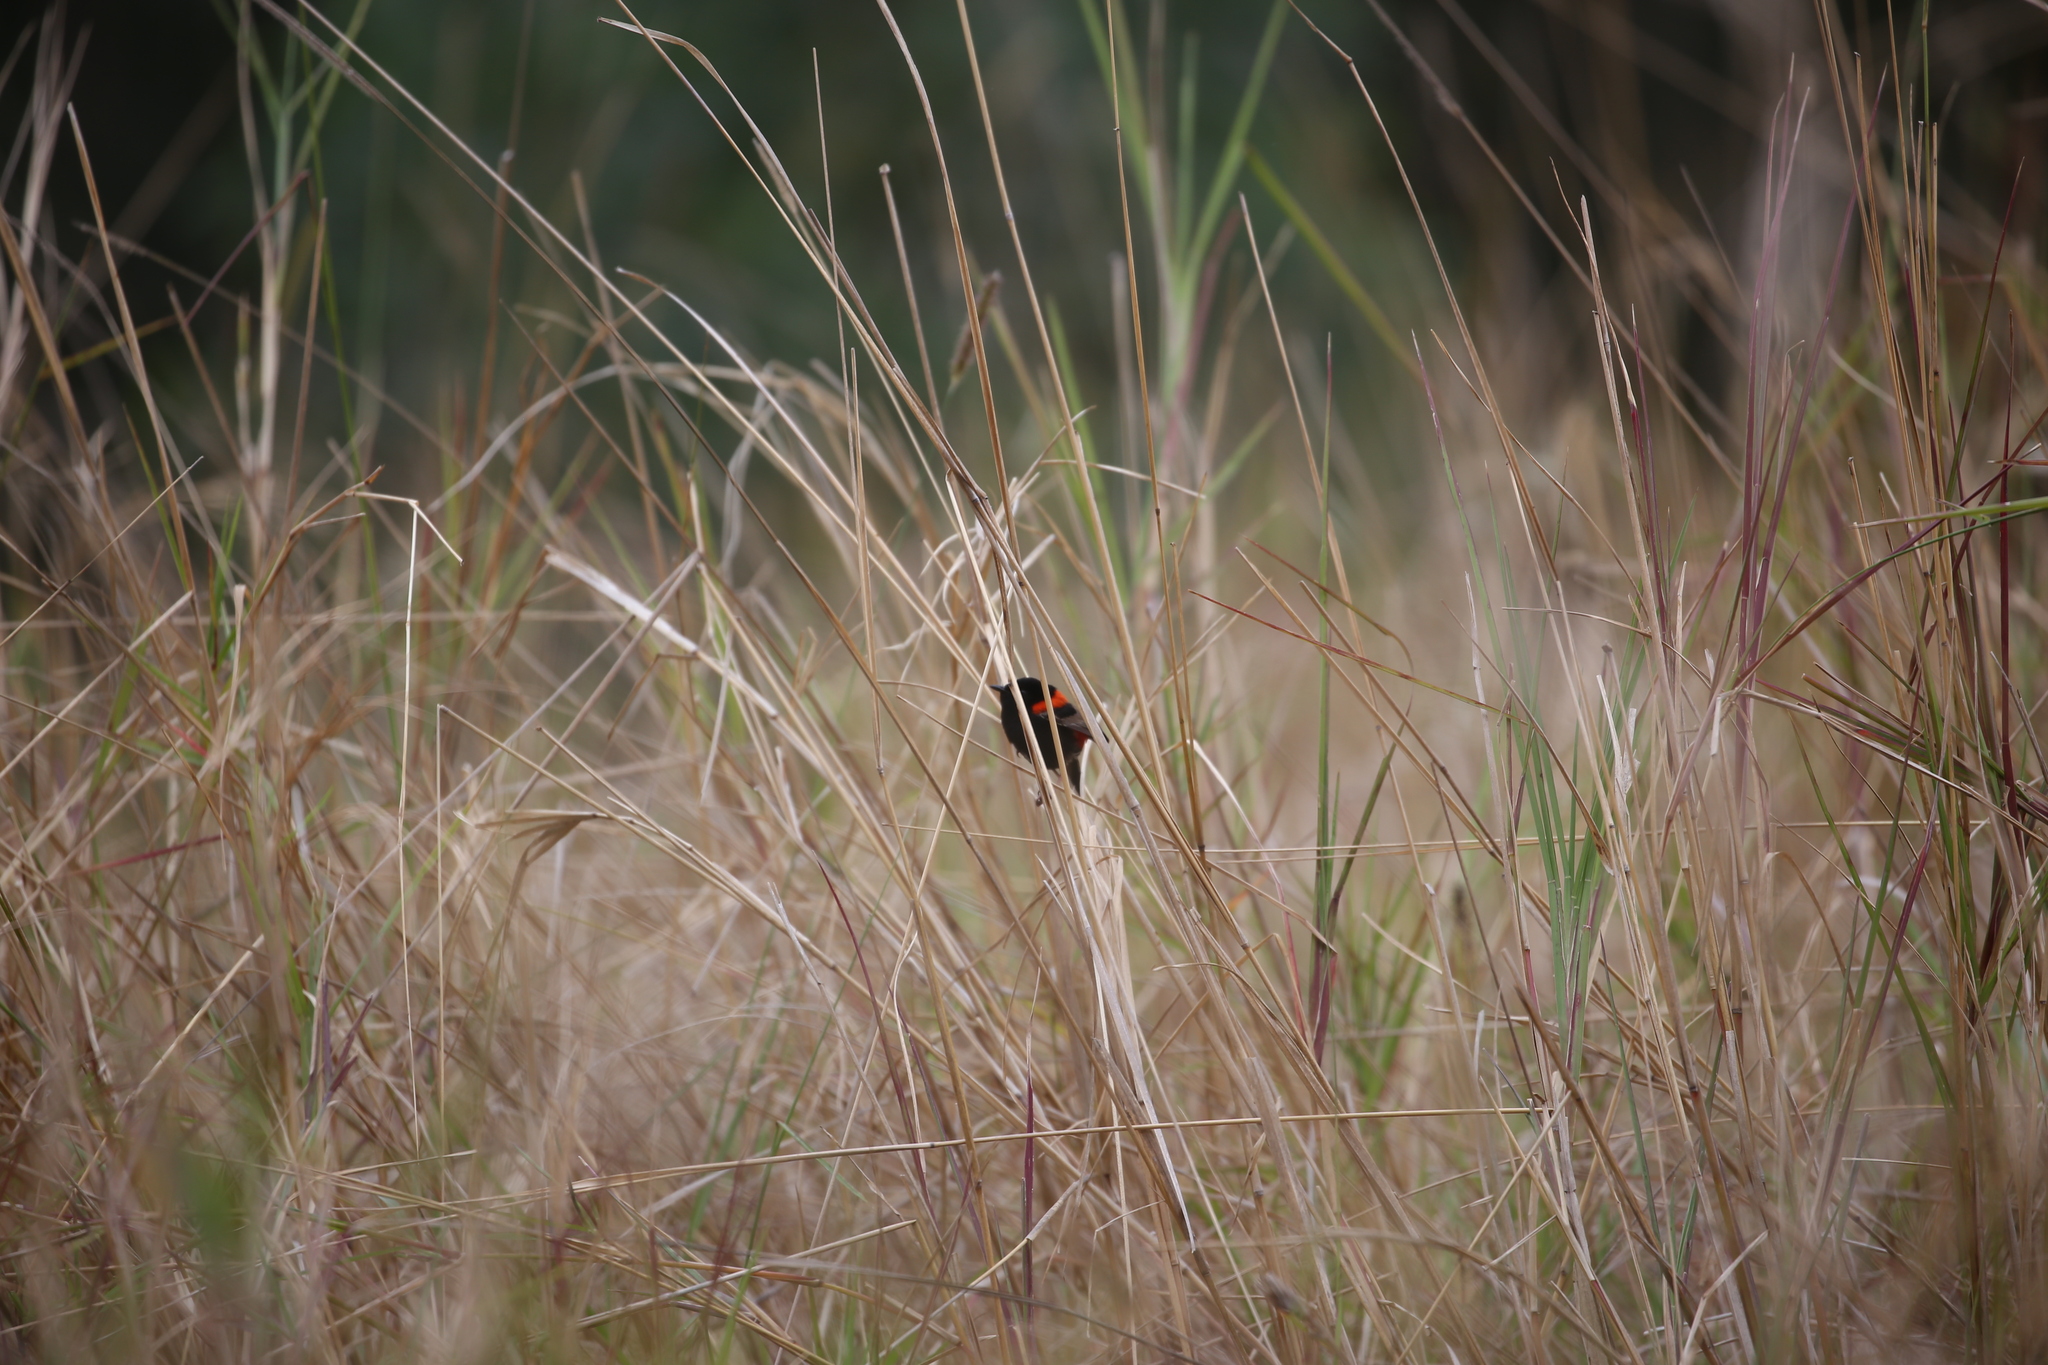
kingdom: Animalia
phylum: Chordata
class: Aves
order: Passeriformes
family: Maluridae
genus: Malurus
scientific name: Malurus melanocephalus
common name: Red-backed fairywren
